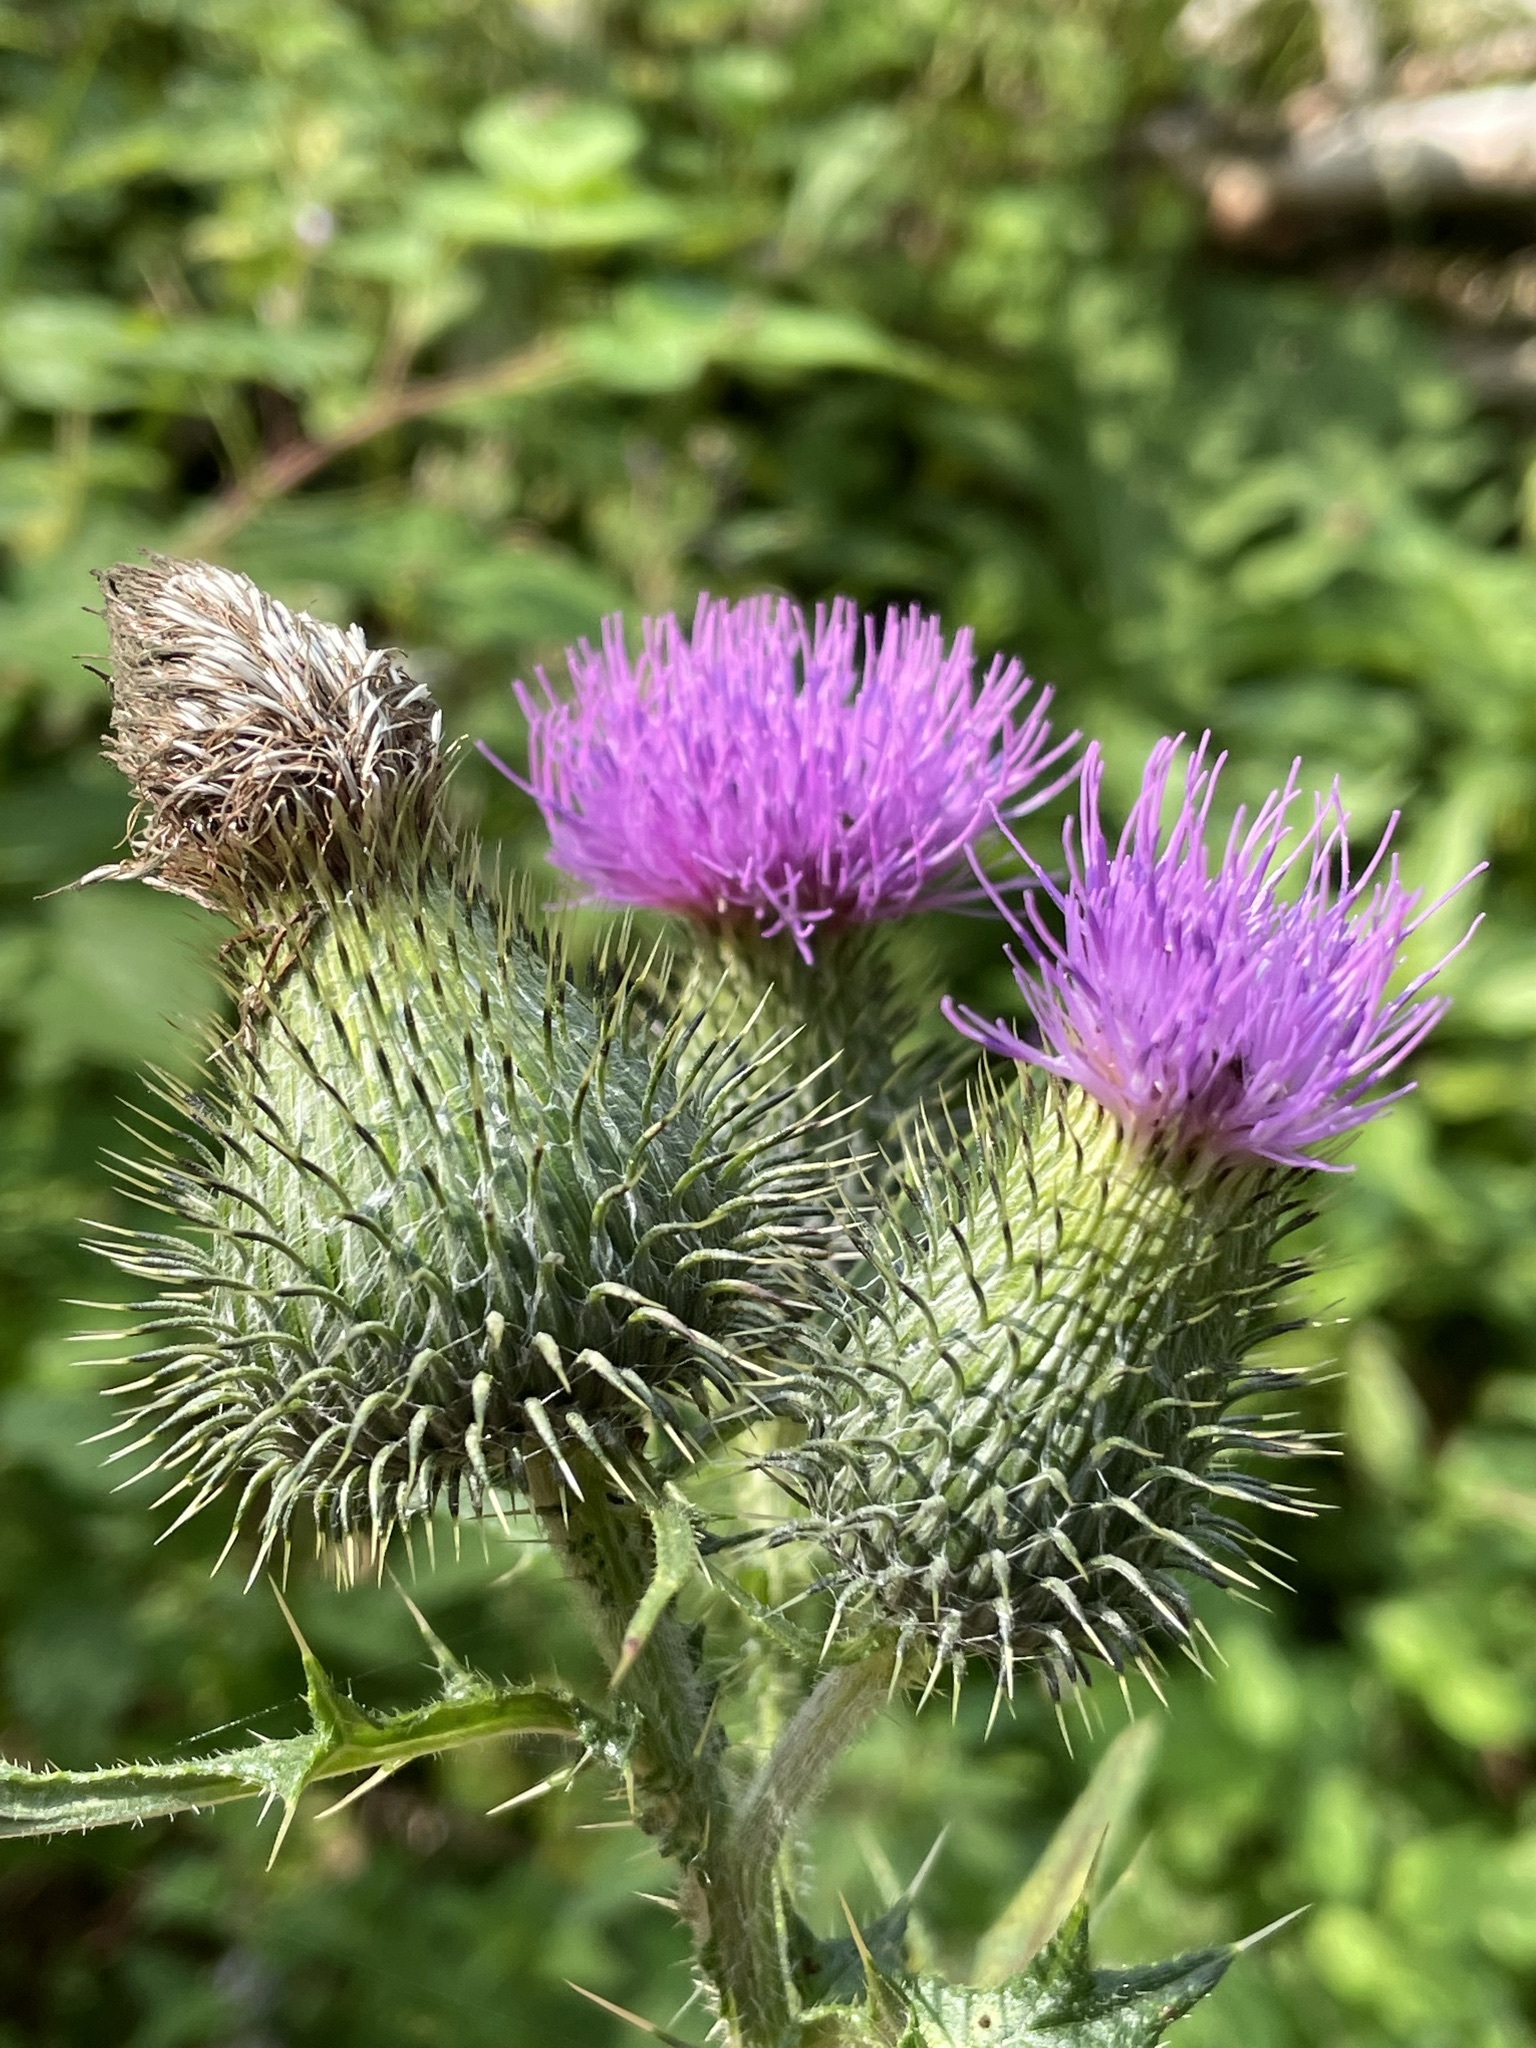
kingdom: Plantae
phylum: Tracheophyta
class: Magnoliopsida
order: Asterales
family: Asteraceae
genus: Cirsium
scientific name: Cirsium vulgare
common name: Bull thistle
